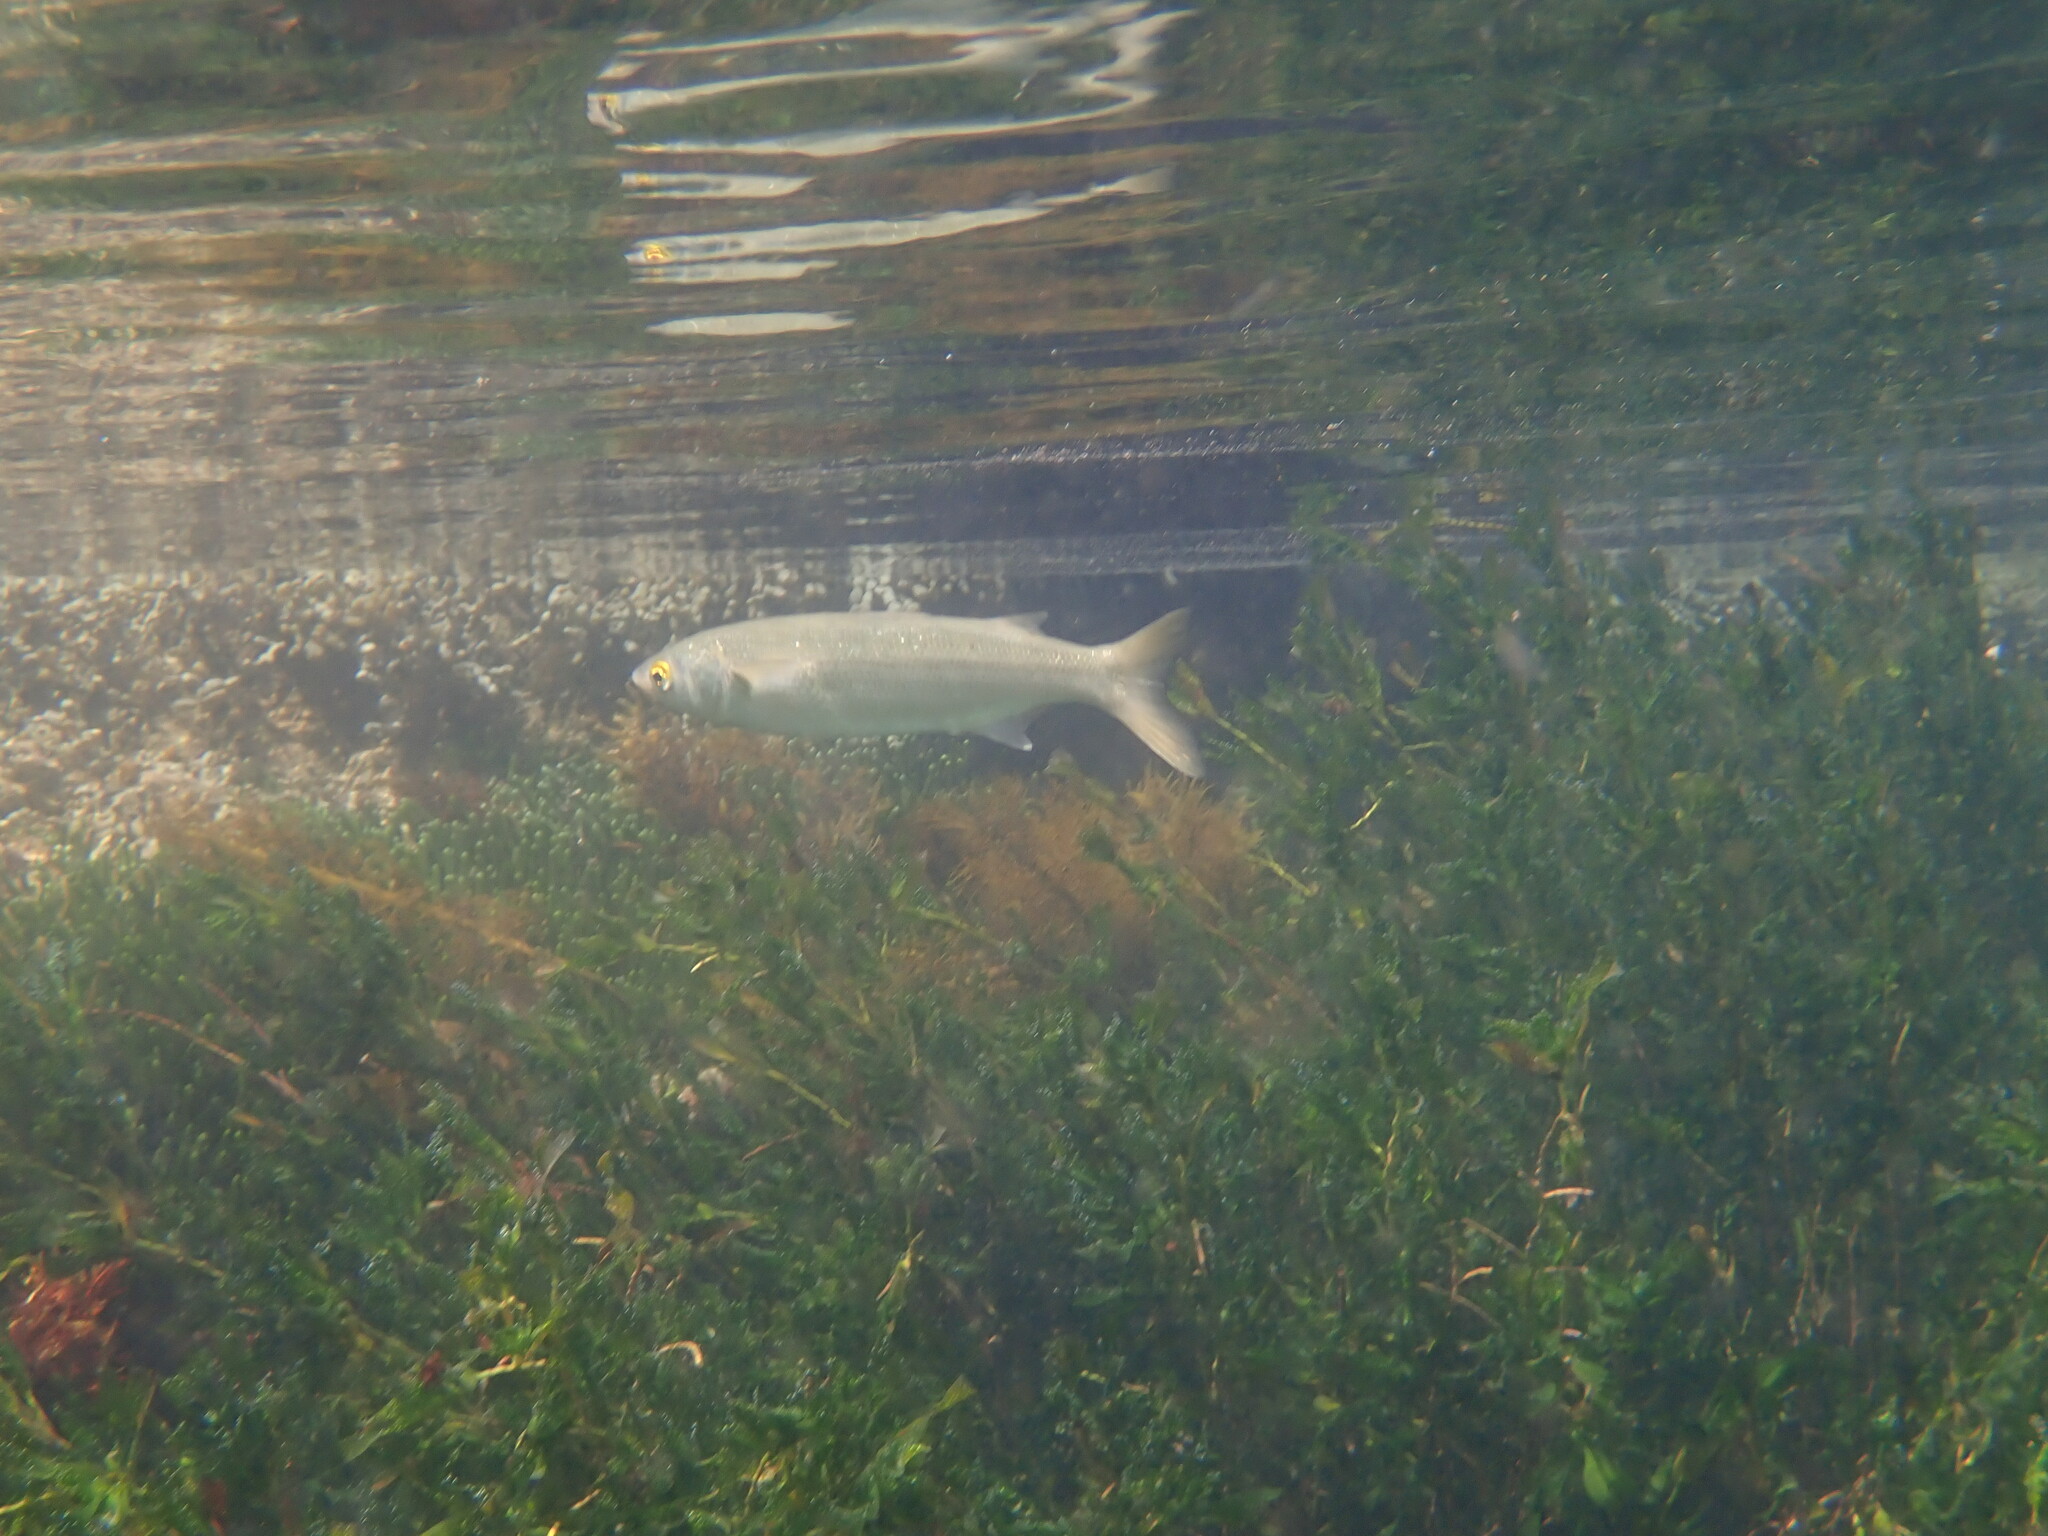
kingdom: Animalia
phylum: Chordata
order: Mugiliformes
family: Mugilidae
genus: Aldrichetta
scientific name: Aldrichetta forsteri
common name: Yellow-eye mullet
